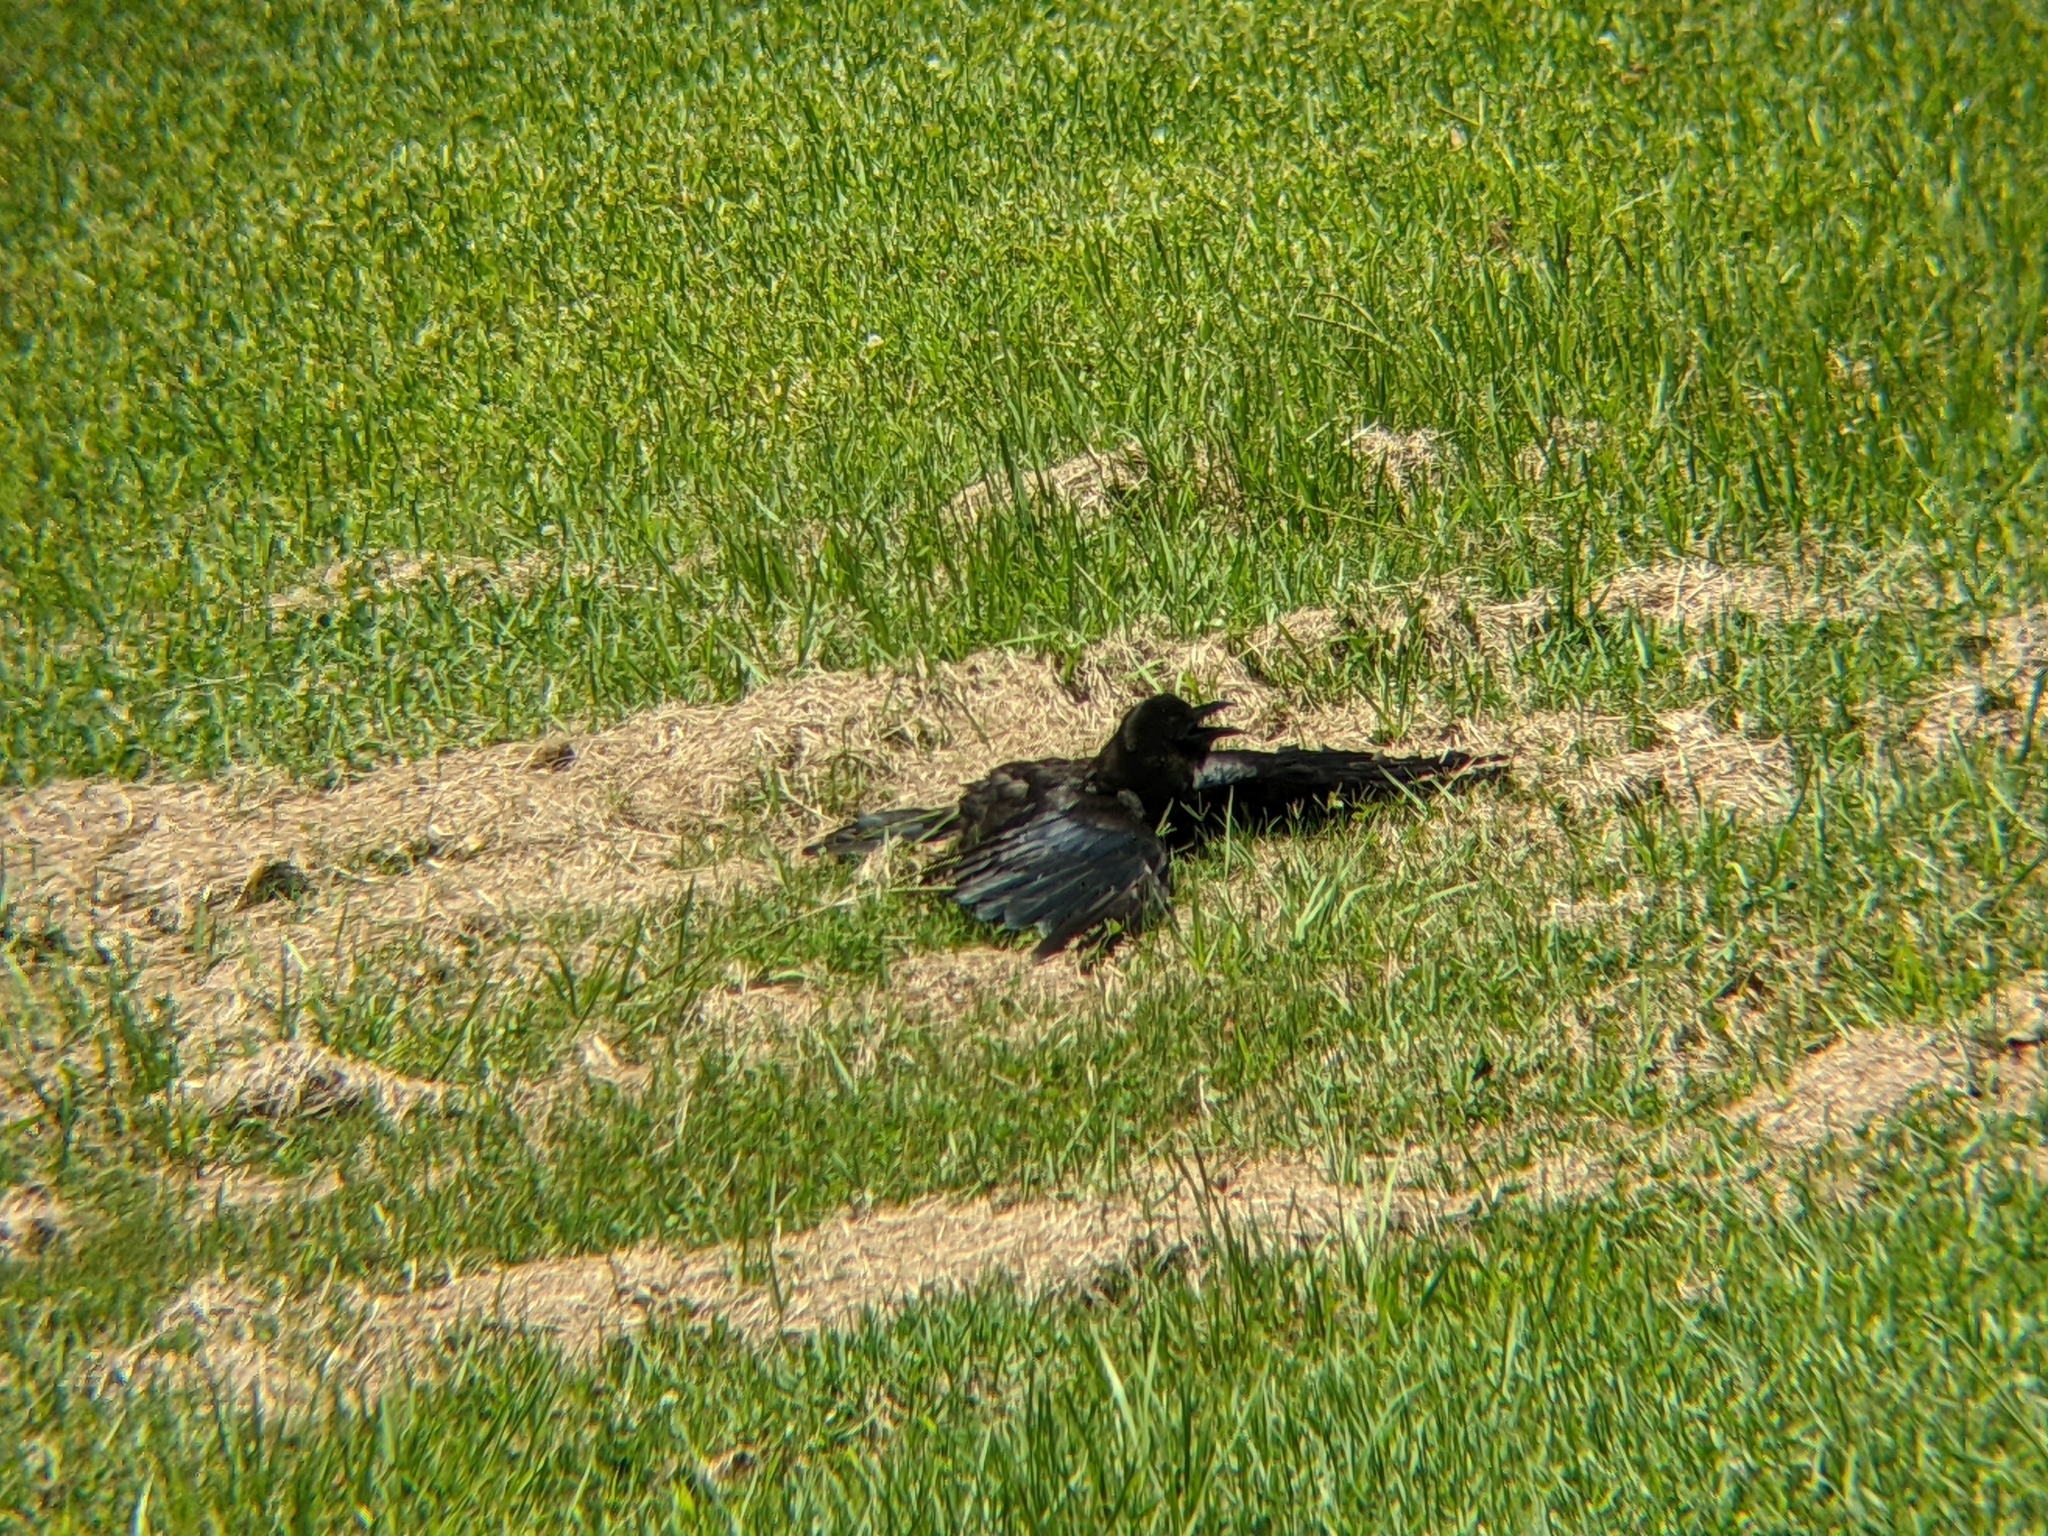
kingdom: Animalia
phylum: Chordata
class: Aves
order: Passeriformes
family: Corvidae
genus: Corvus
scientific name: Corvus brachyrhynchos
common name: American crow
